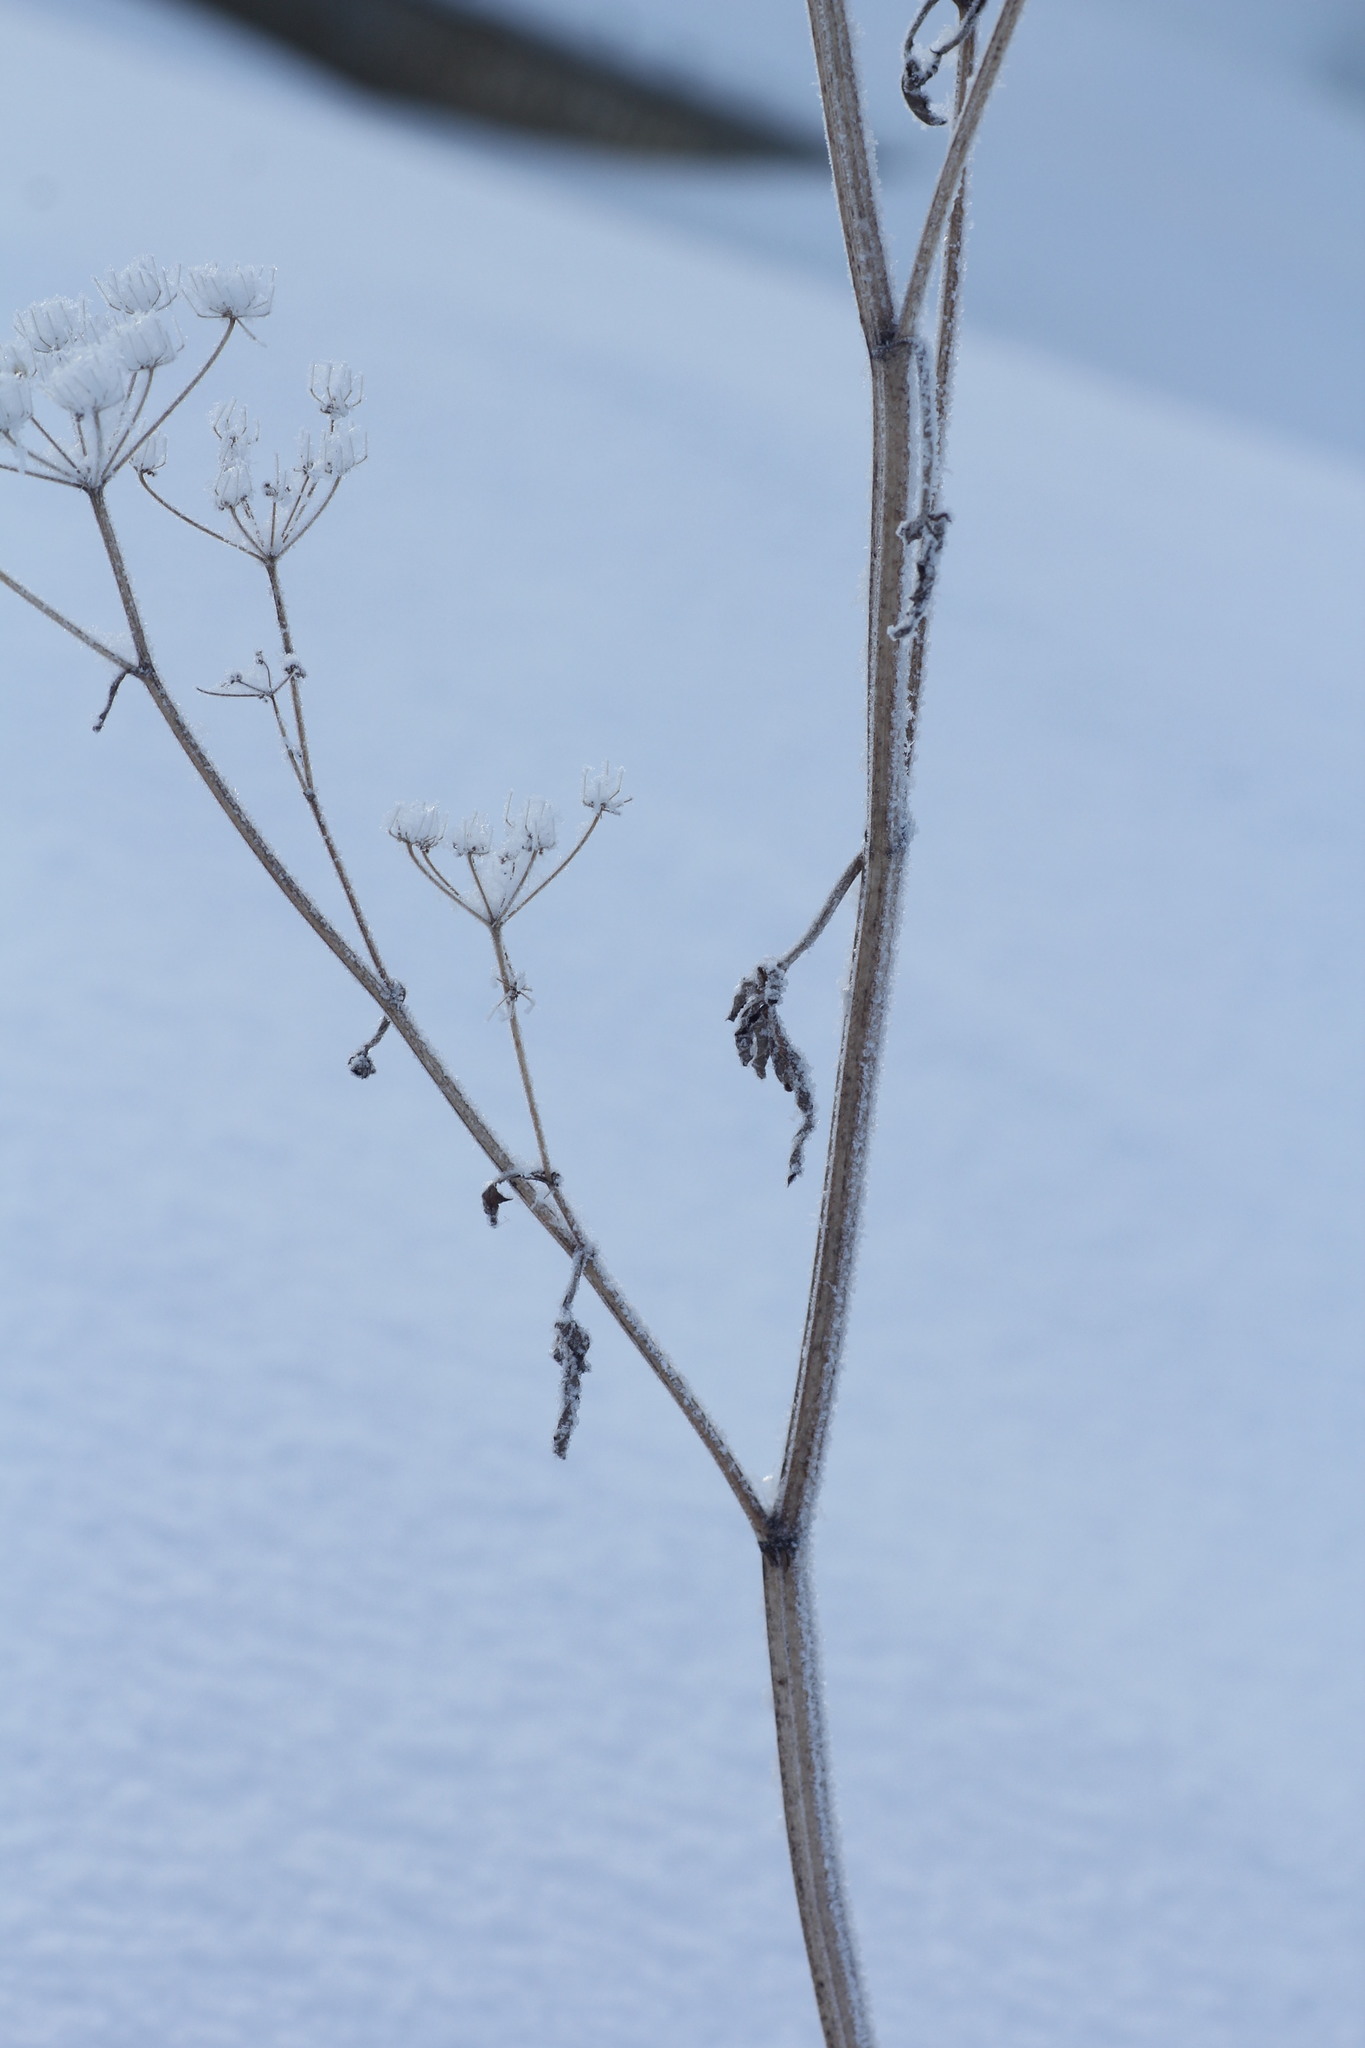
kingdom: Plantae
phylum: Tracheophyta
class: Magnoliopsida
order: Apiales
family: Apiaceae
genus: Pastinaca
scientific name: Pastinaca sativa
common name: Wild parsnip
